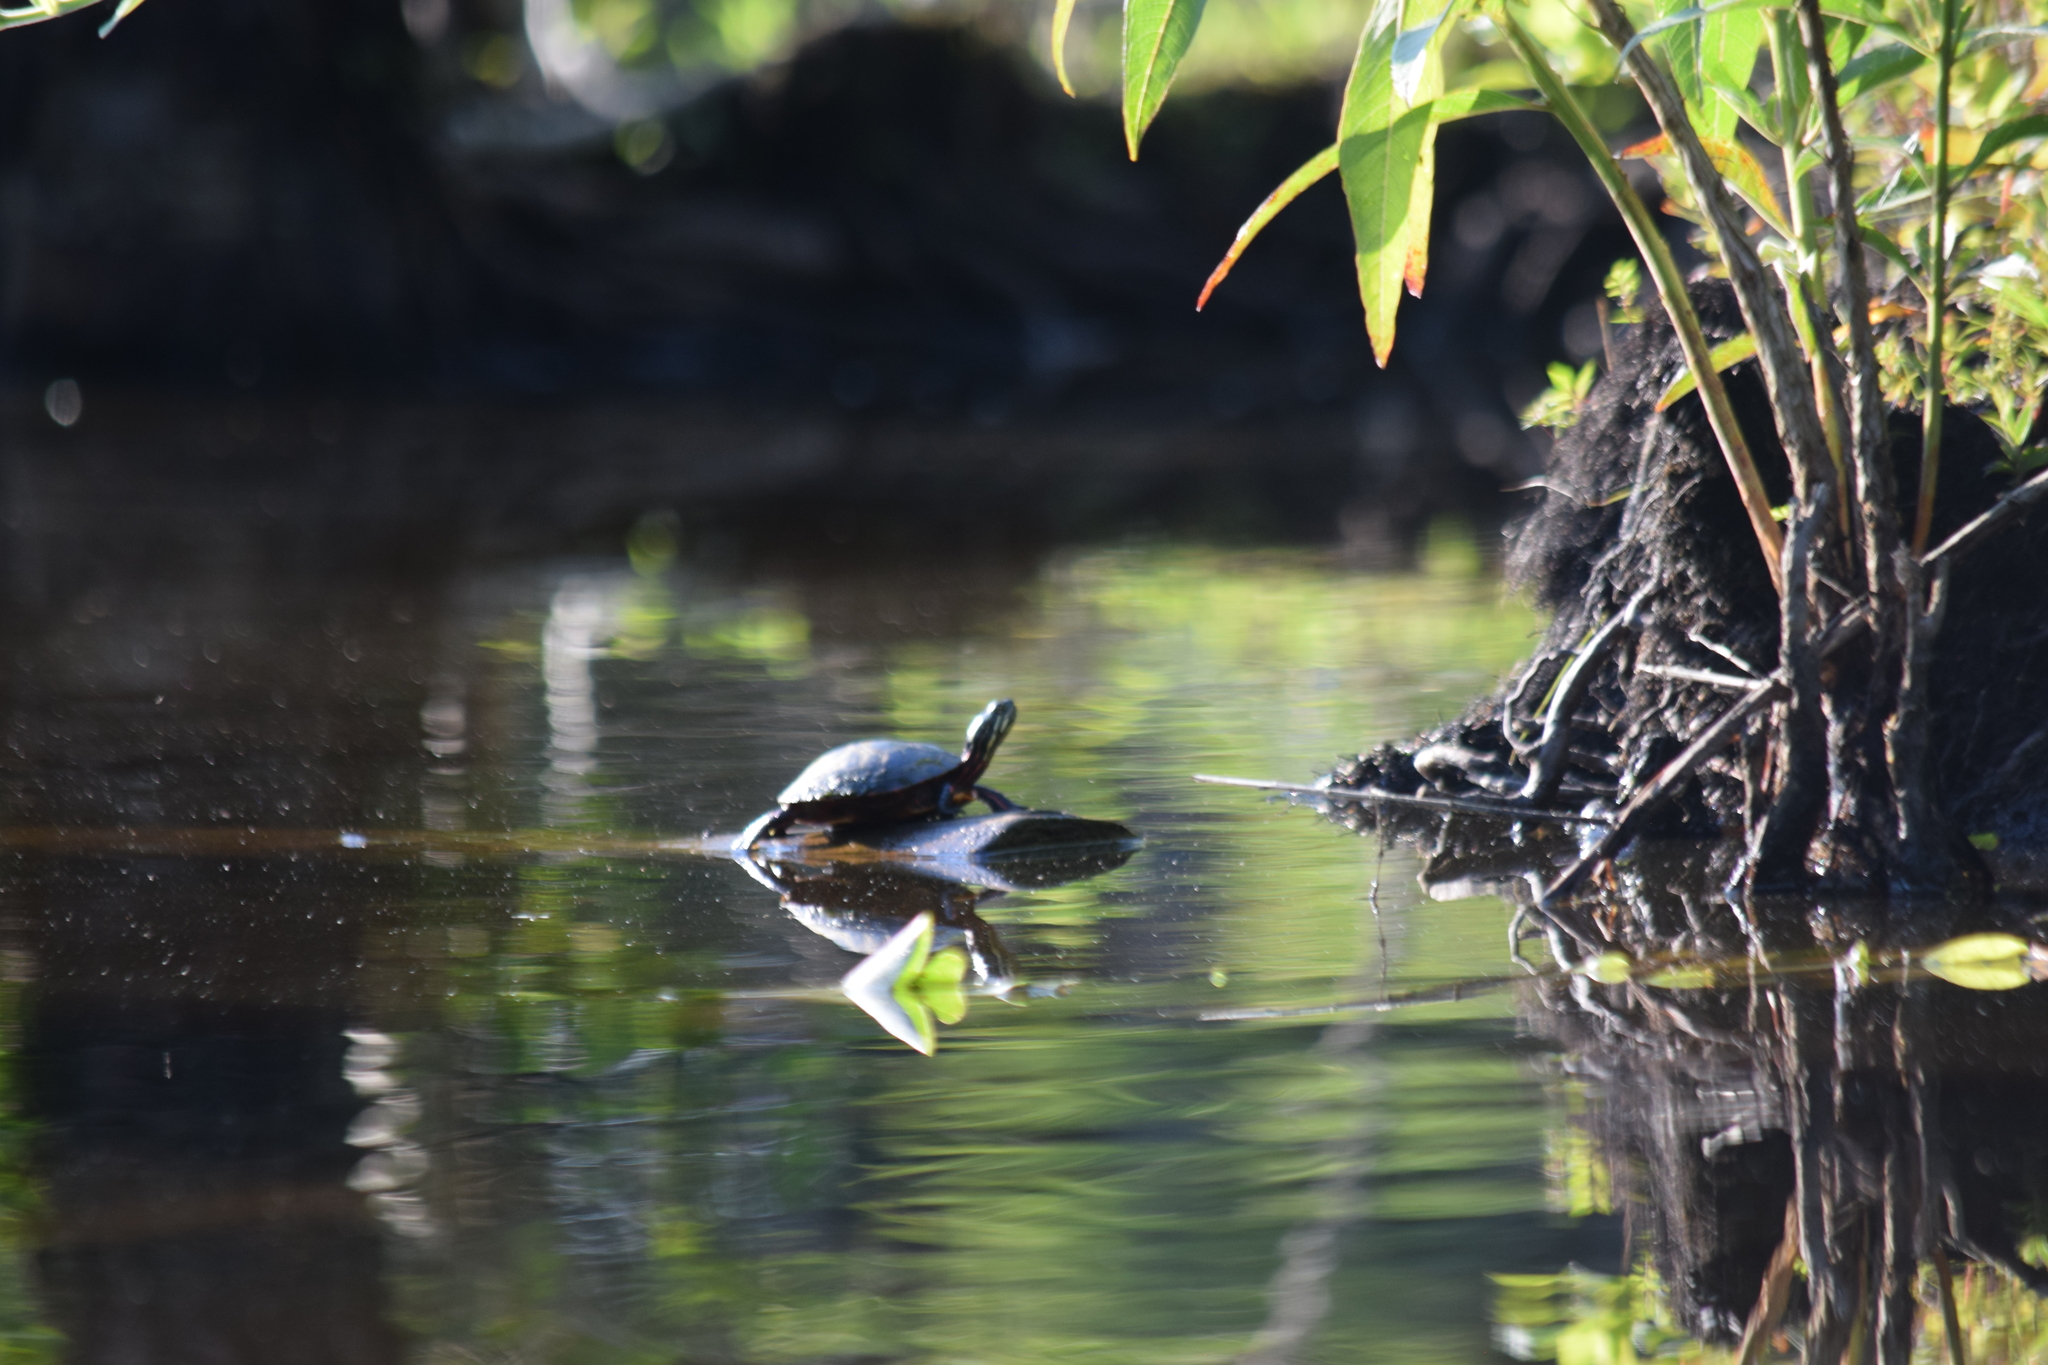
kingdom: Animalia
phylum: Chordata
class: Testudines
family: Emydidae
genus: Chrysemys
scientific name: Chrysemys picta
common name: Painted turtle
